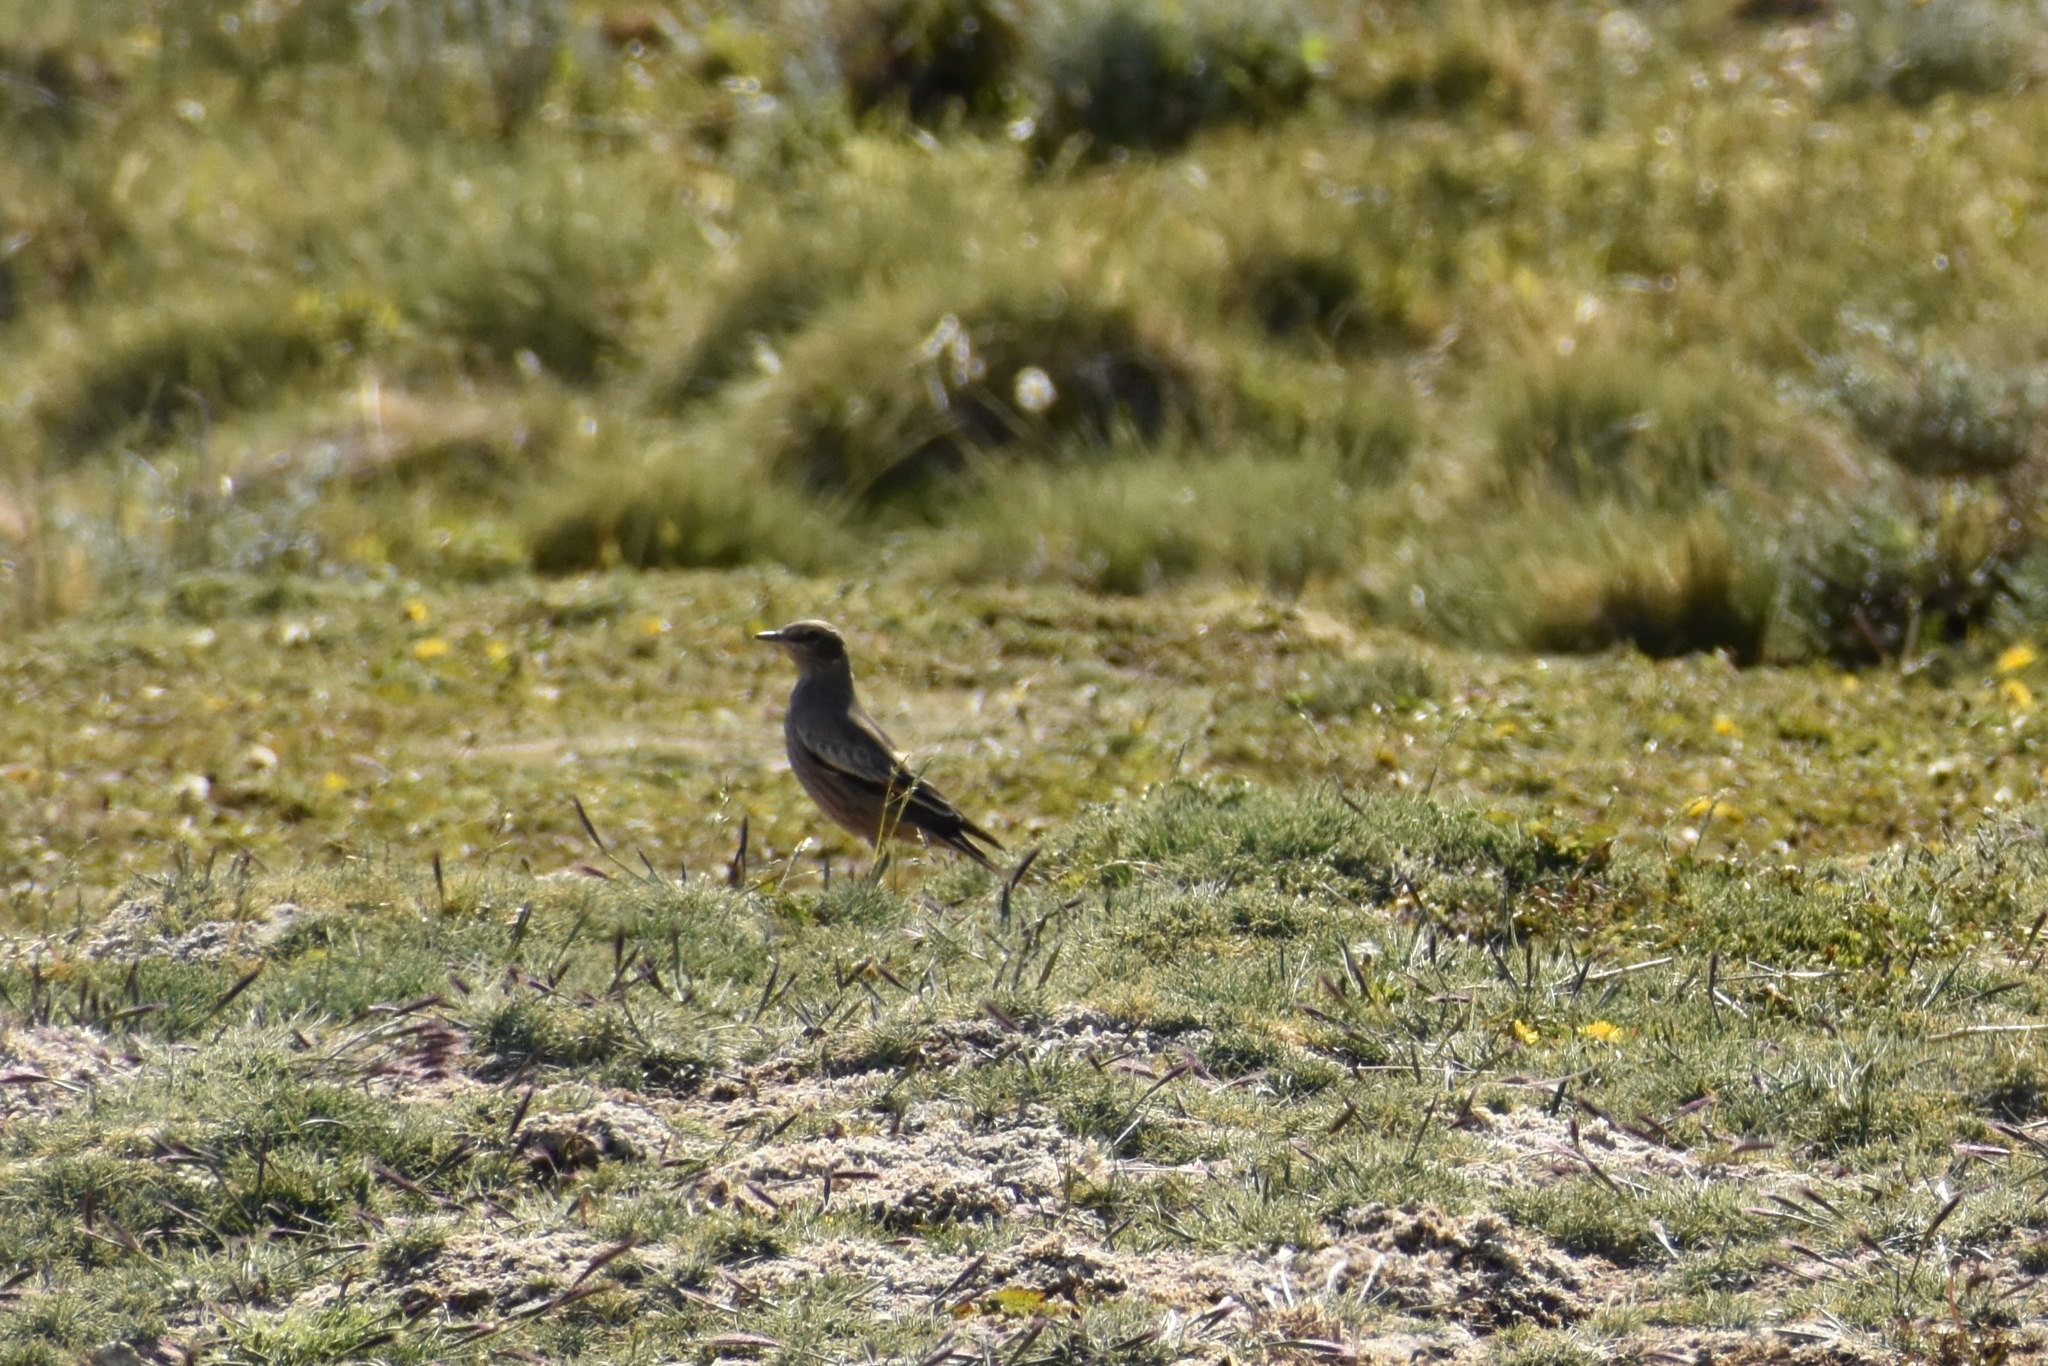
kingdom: Animalia
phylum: Chordata
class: Aves
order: Passeriformes
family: Tyrannidae
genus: Neoxolmis
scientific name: Neoxolmis rufiventris
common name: Chocolate-vented tyrant
